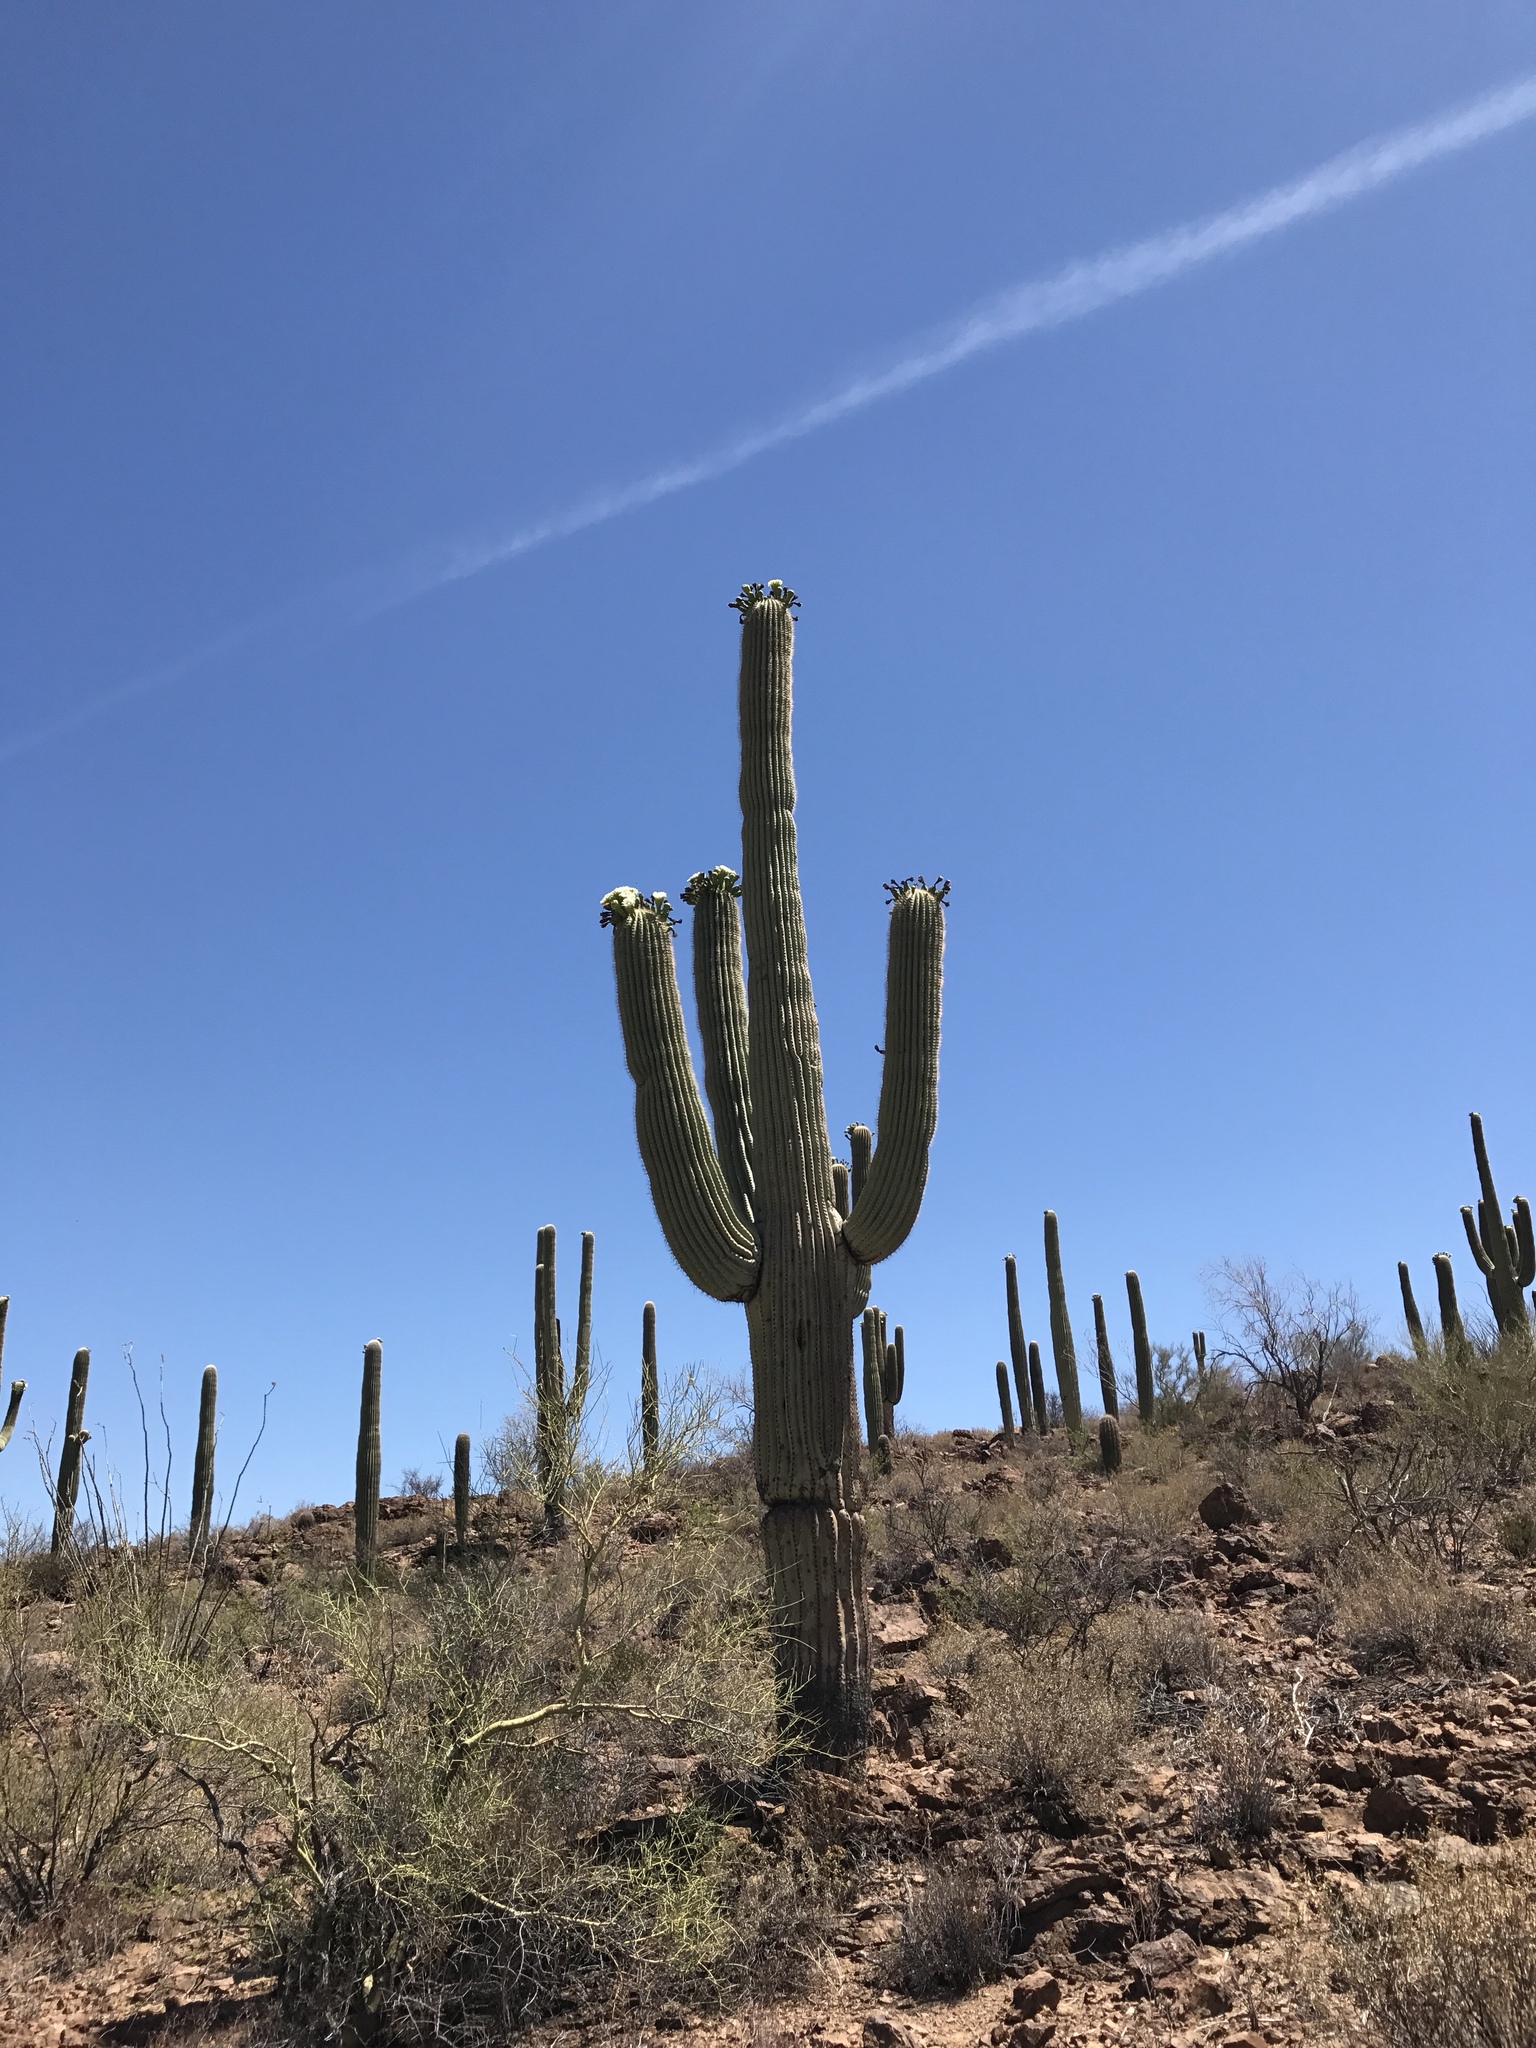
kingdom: Plantae
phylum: Tracheophyta
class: Magnoliopsida
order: Caryophyllales
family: Cactaceae
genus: Carnegiea
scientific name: Carnegiea gigantea
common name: Saguaro
